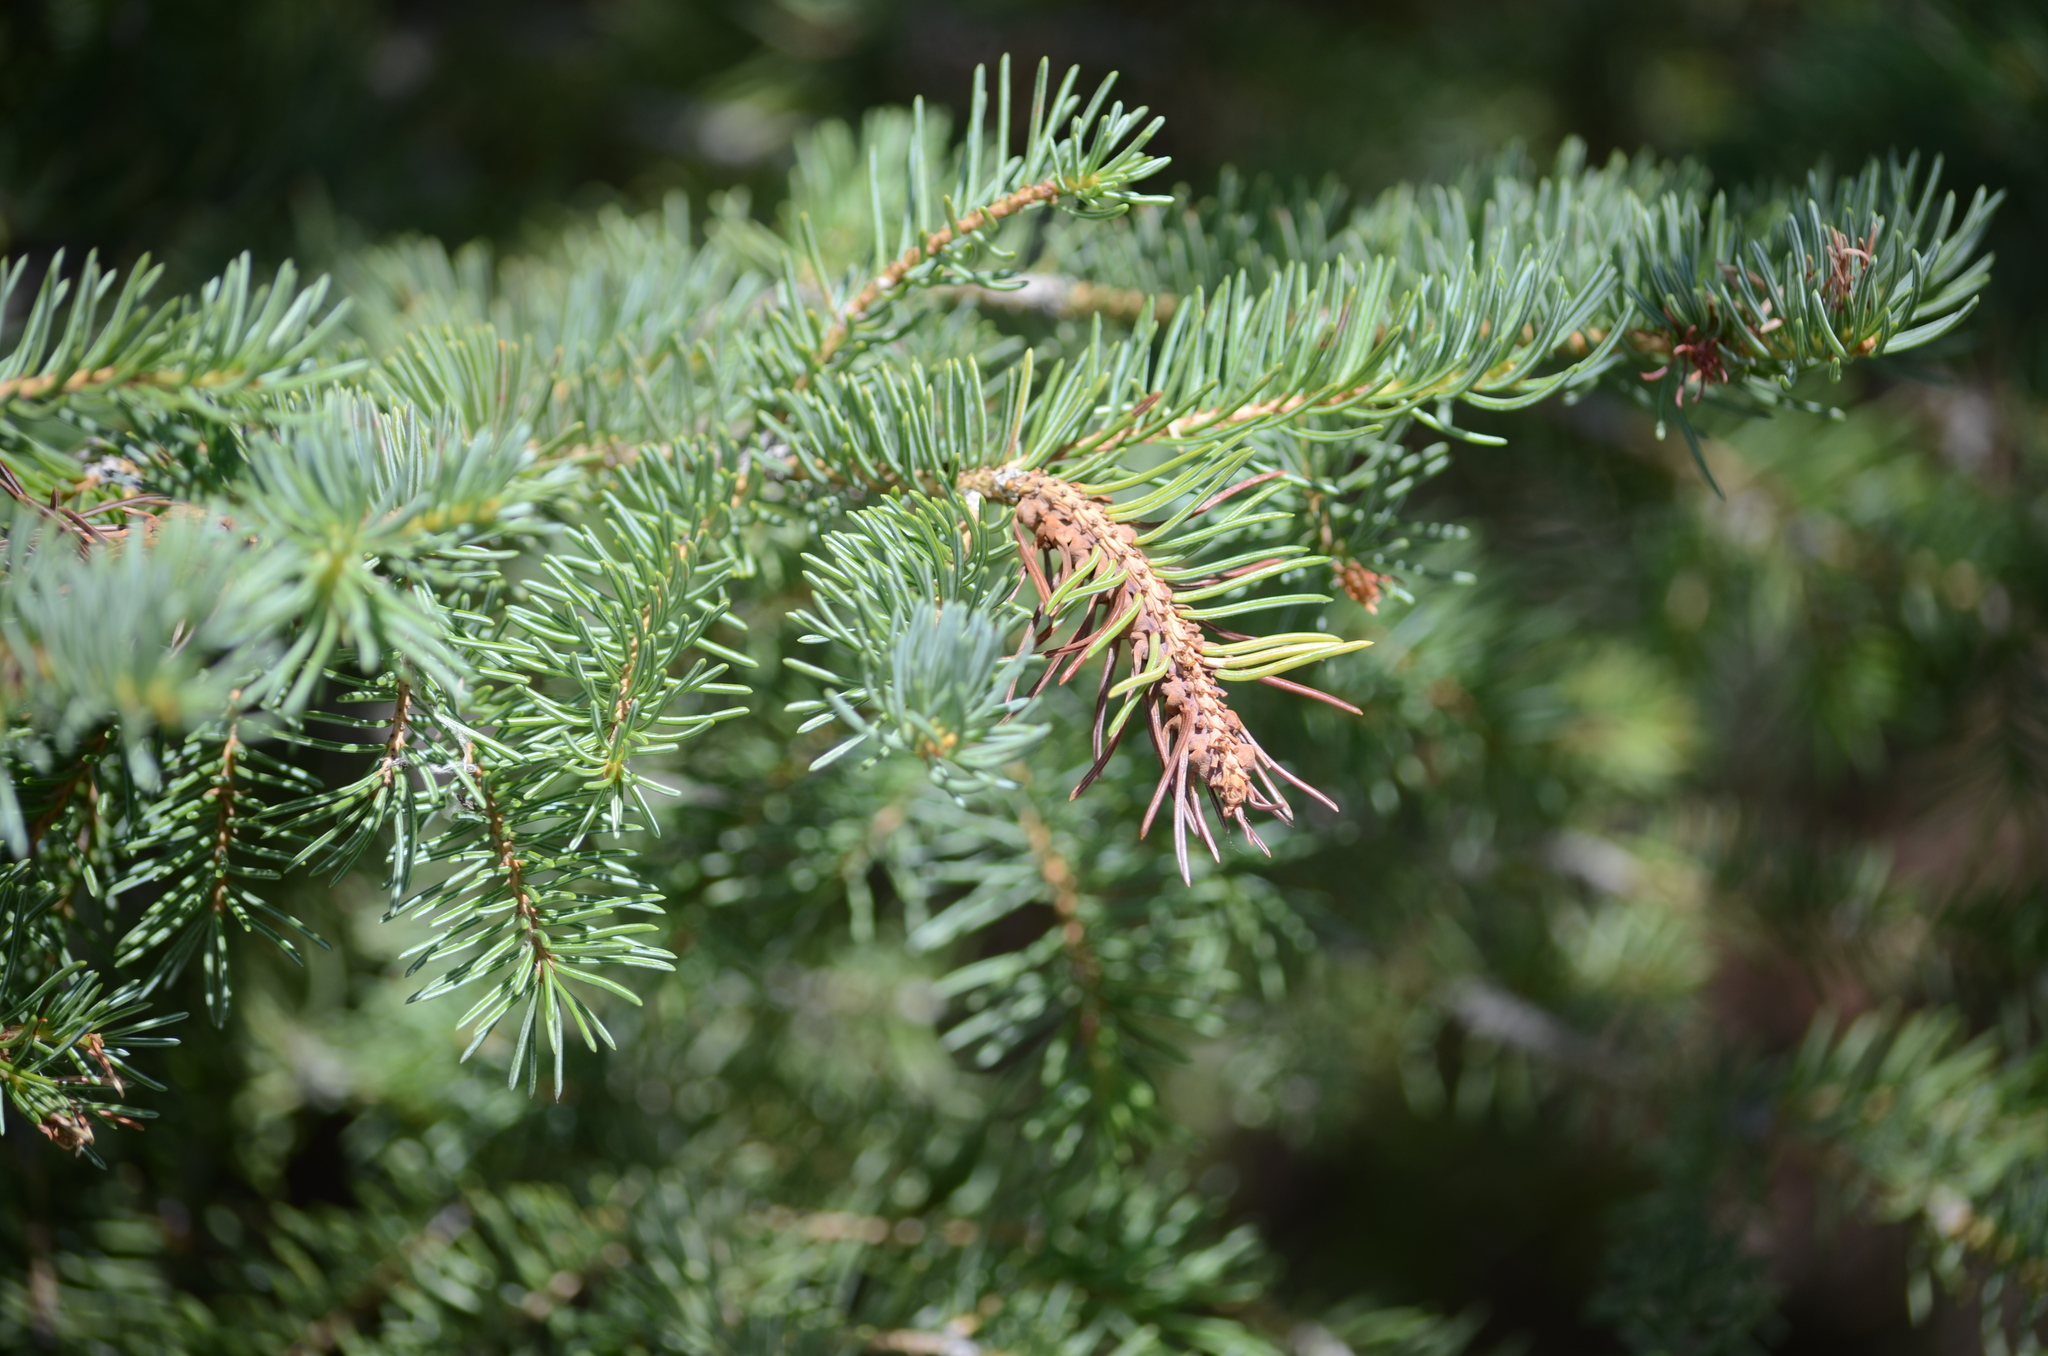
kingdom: Animalia
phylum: Arthropoda
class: Insecta
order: Hemiptera
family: Adelgidae
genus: Adelges
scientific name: Adelges cooleyi
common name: Cooley spruce gall adelgid
